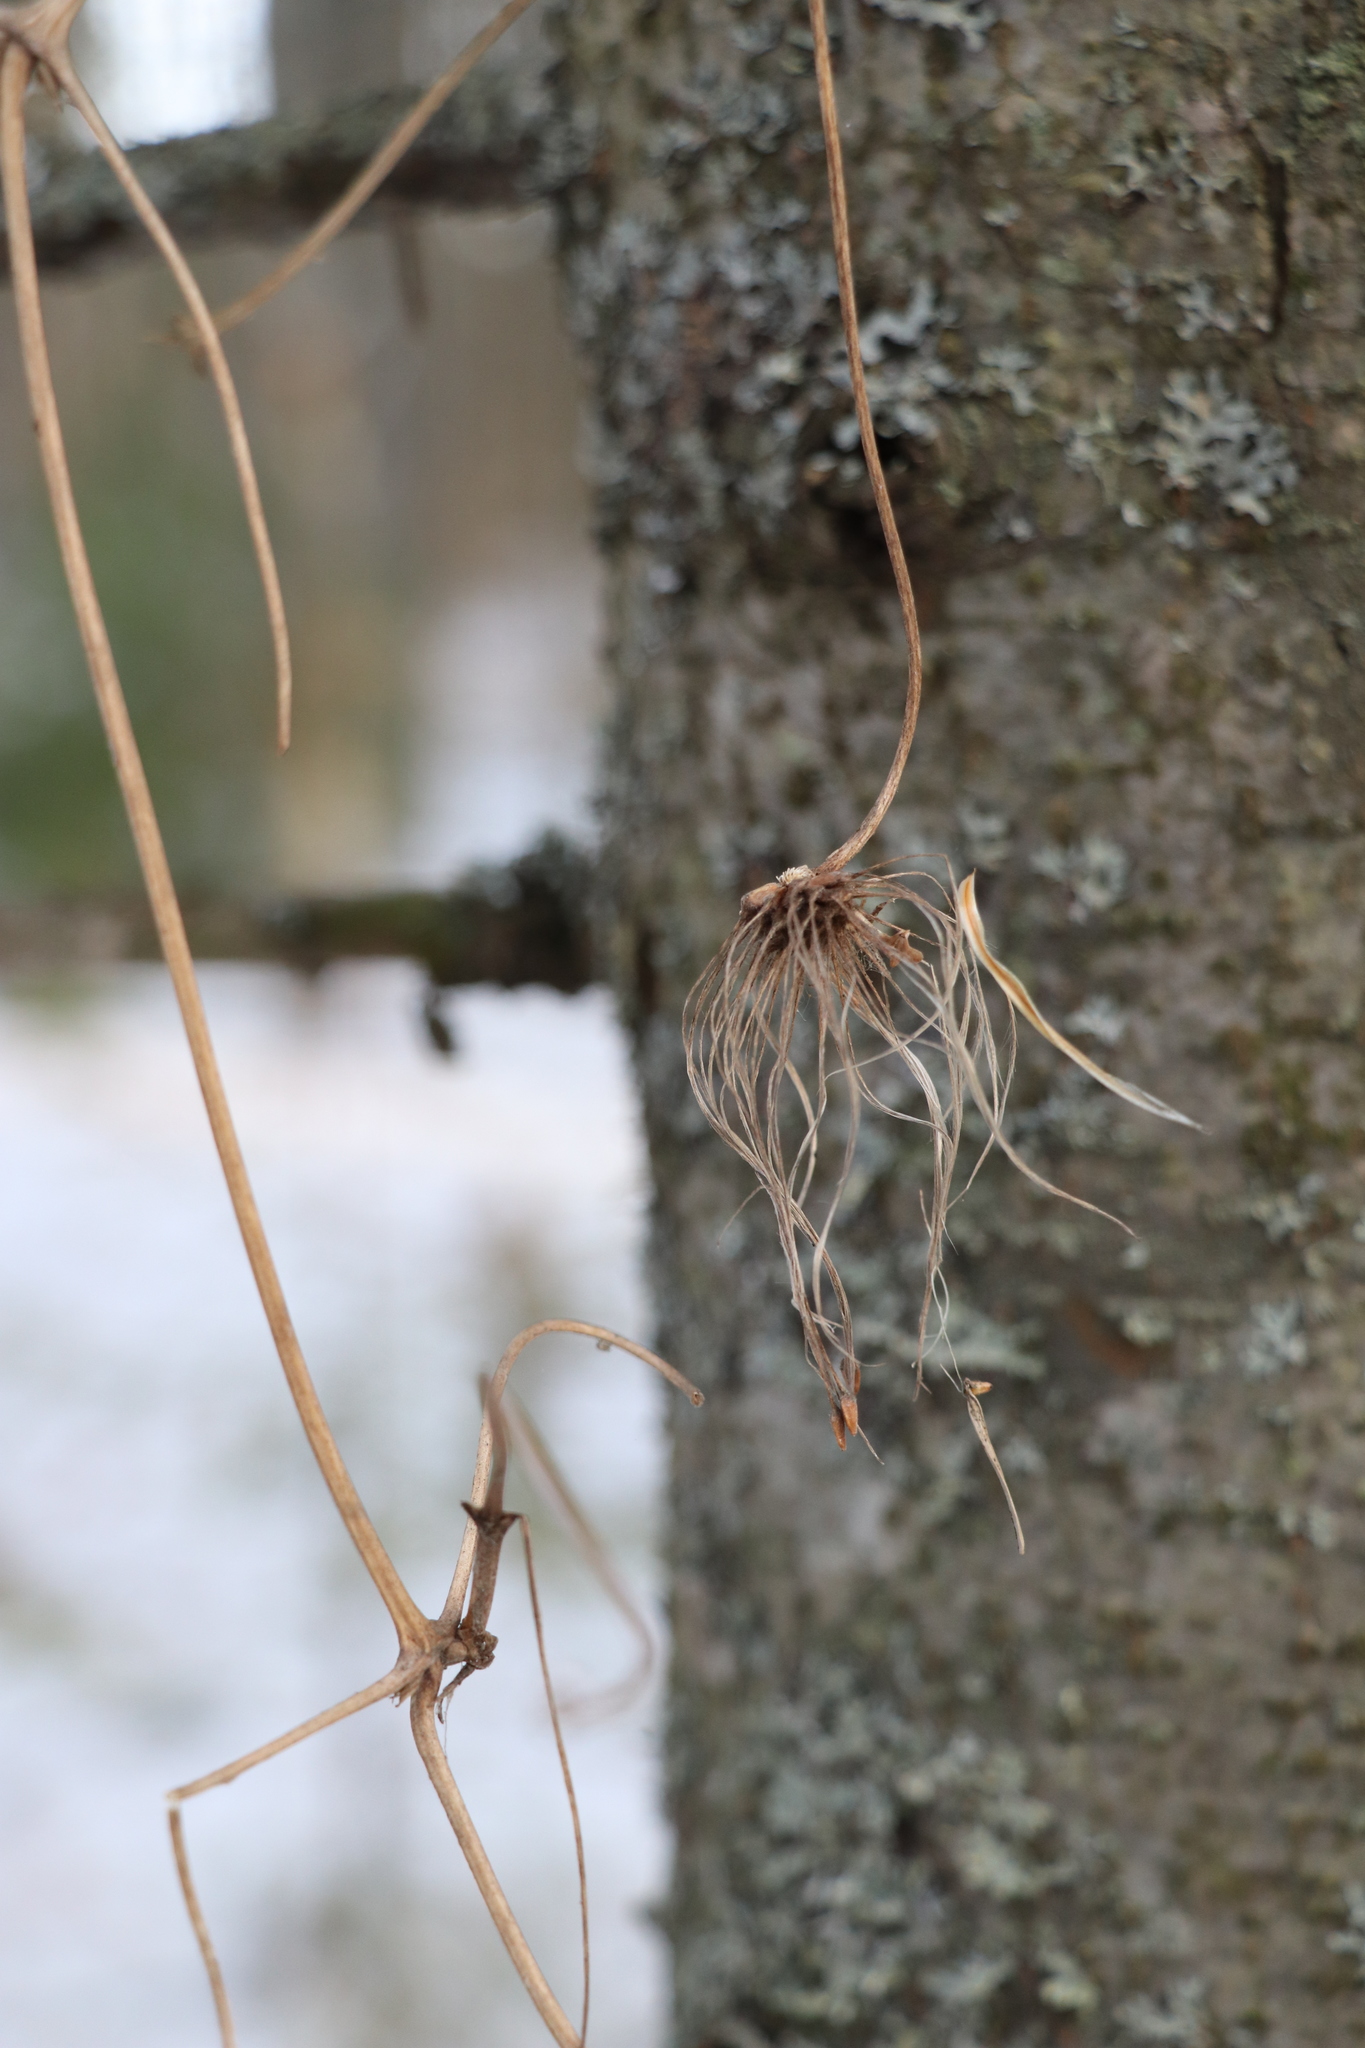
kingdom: Plantae
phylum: Tracheophyta
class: Magnoliopsida
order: Ranunculales
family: Ranunculaceae
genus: Clematis
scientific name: Clematis sibirica
